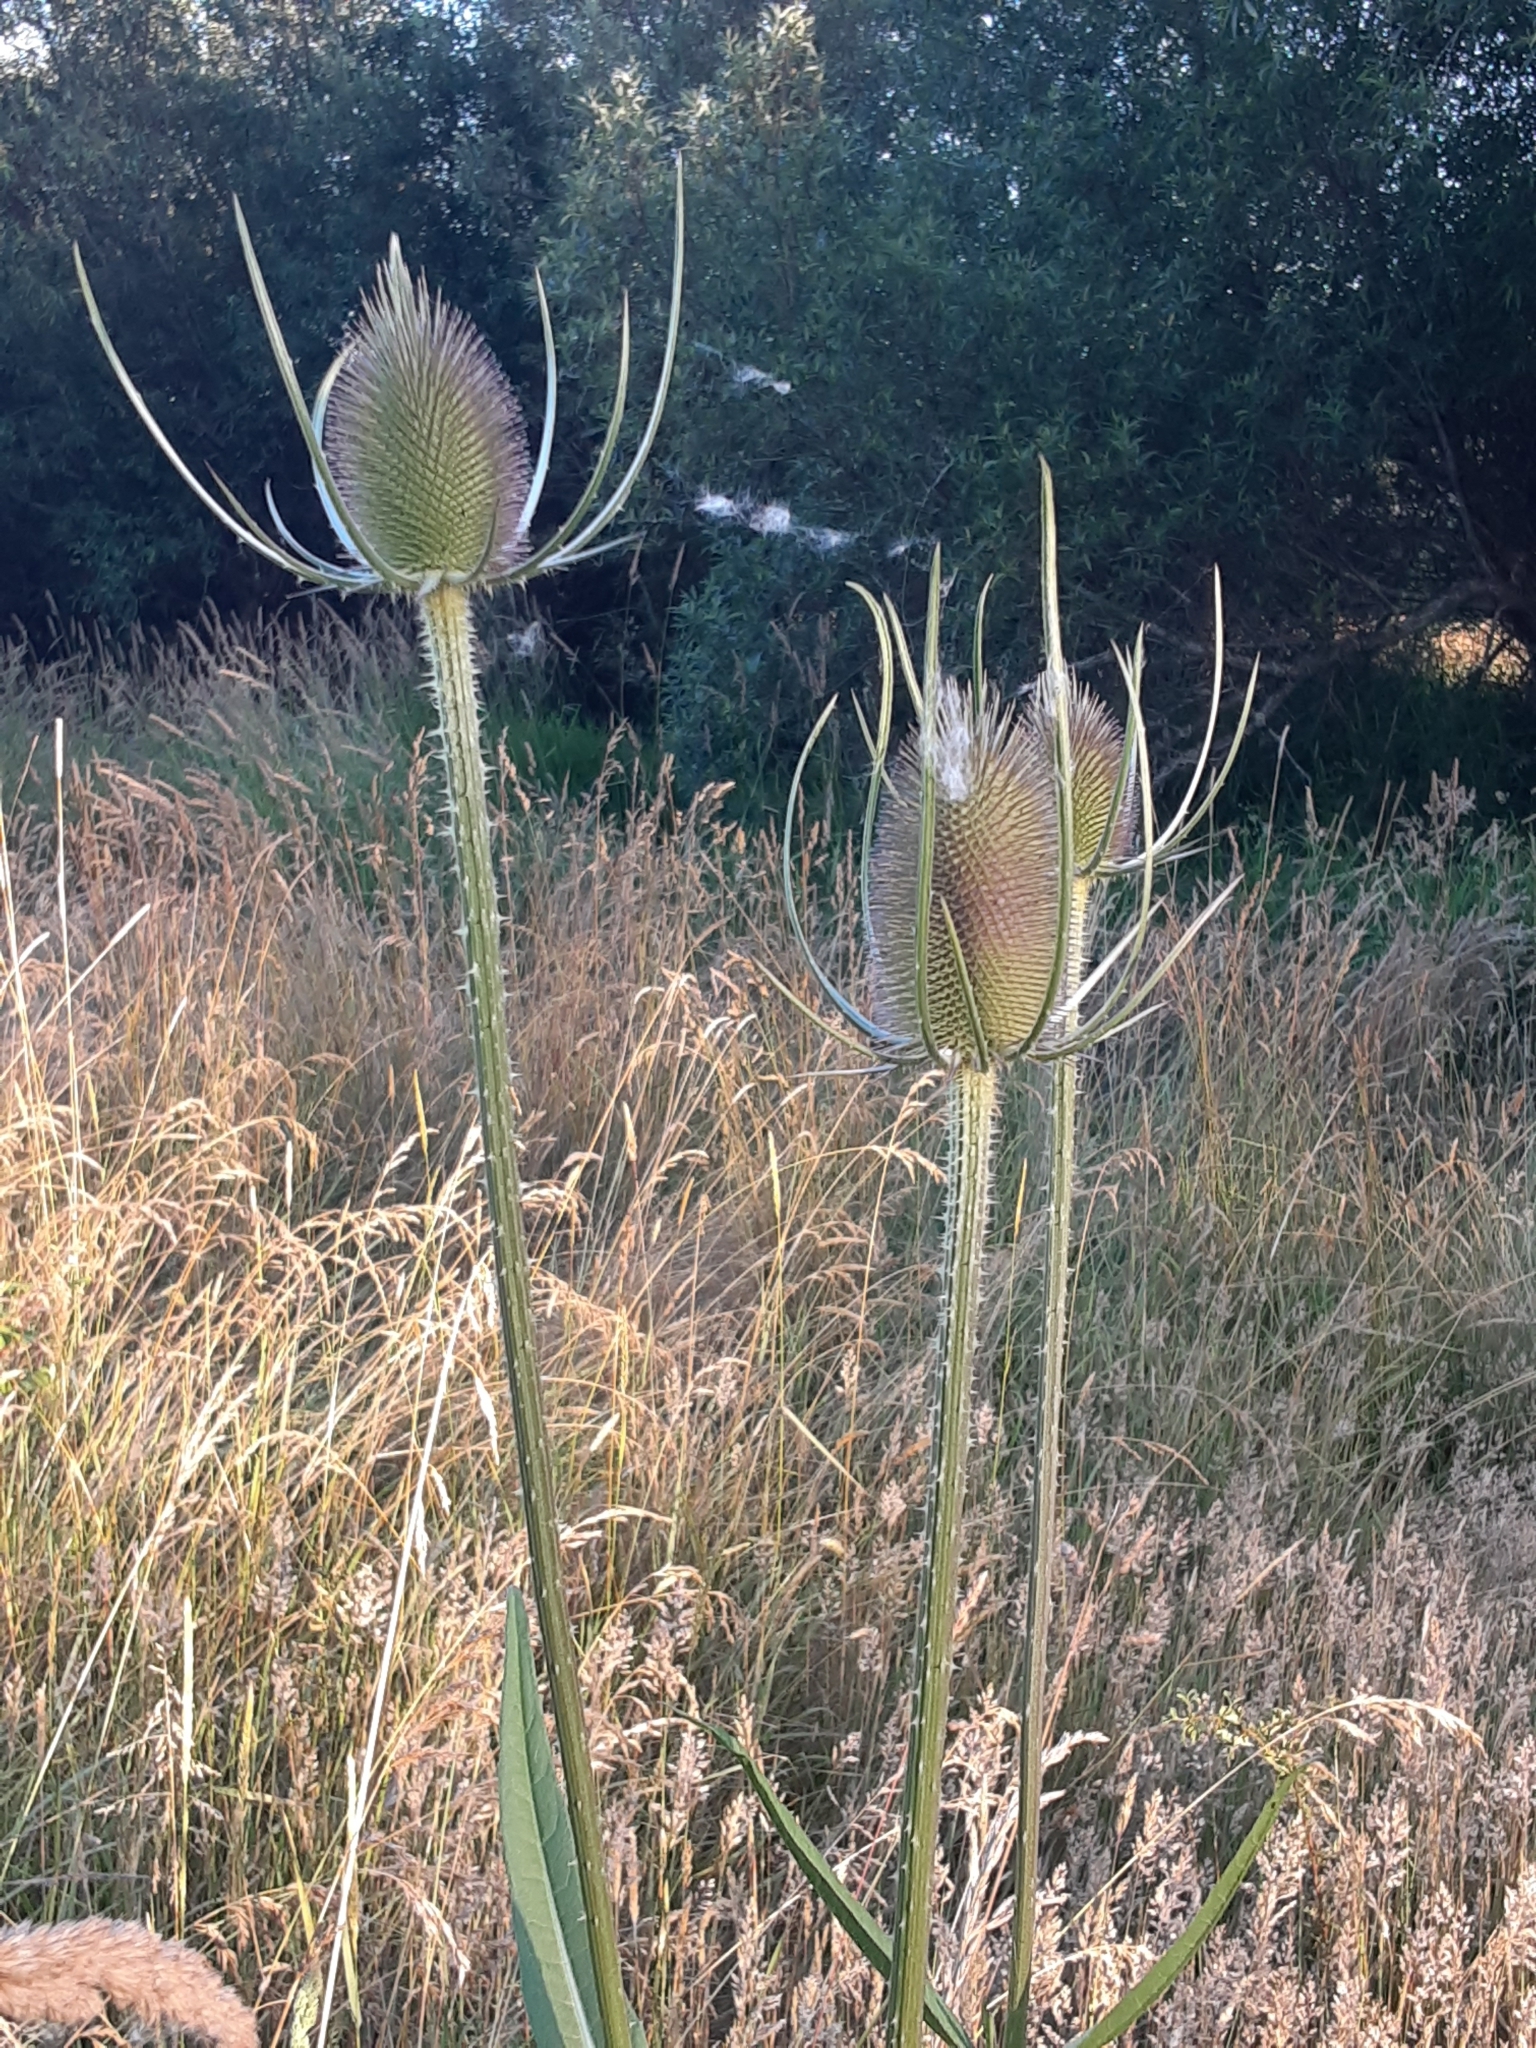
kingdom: Plantae
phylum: Tracheophyta
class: Magnoliopsida
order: Dipsacales
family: Caprifoliaceae
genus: Dipsacus
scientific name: Dipsacus fullonum
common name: Teasel
